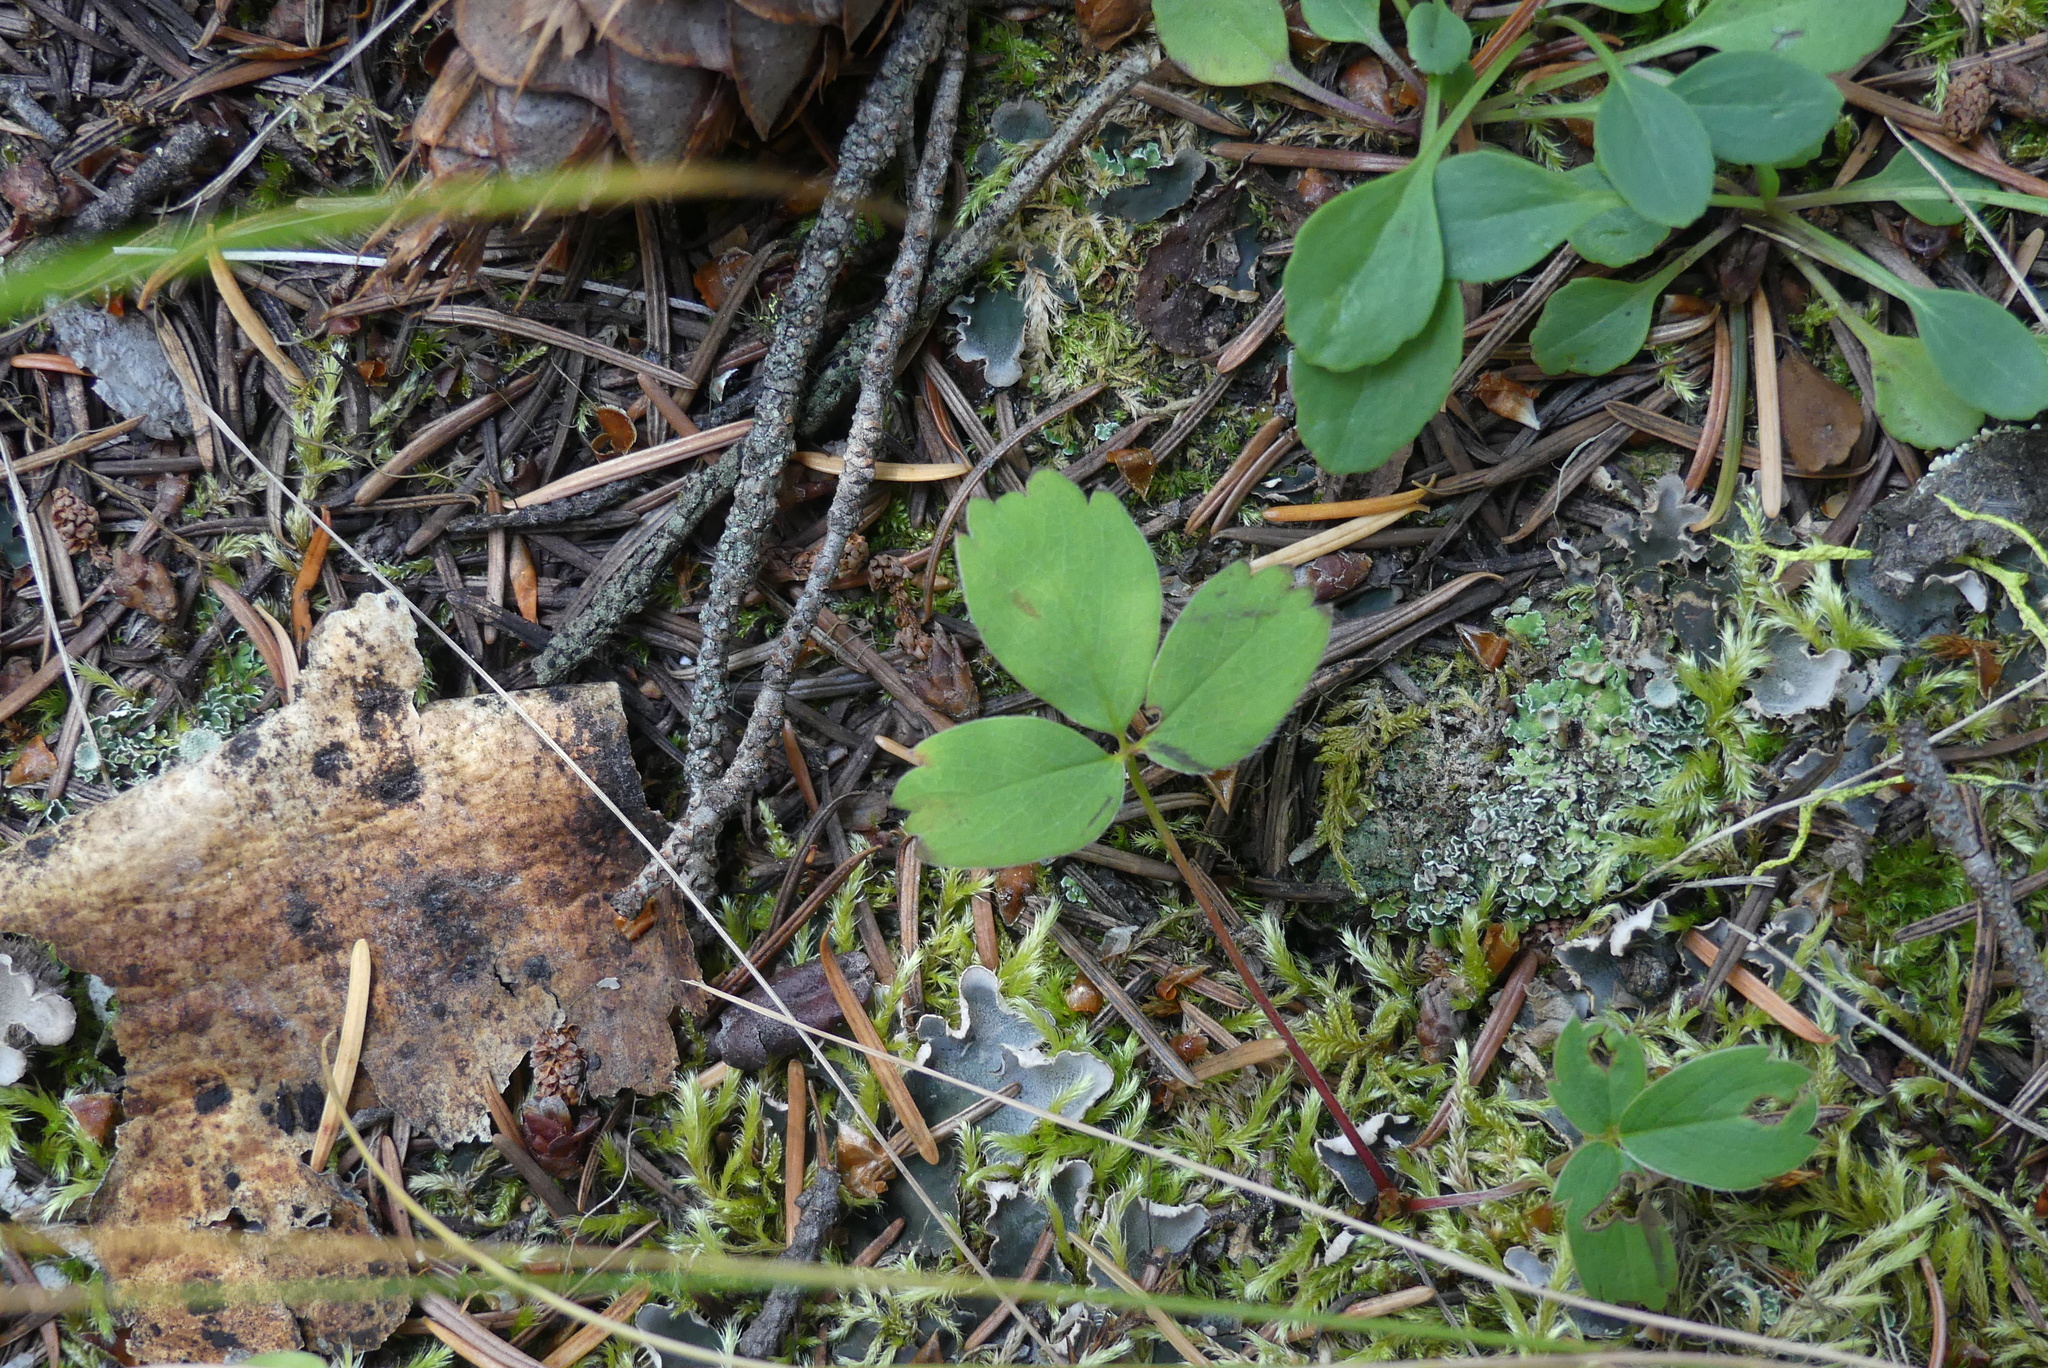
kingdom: Plantae
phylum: Tracheophyta
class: Magnoliopsida
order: Rosales
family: Rosaceae
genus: Fragaria
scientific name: Fragaria virginiana
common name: Thickleaved wild strawberry
